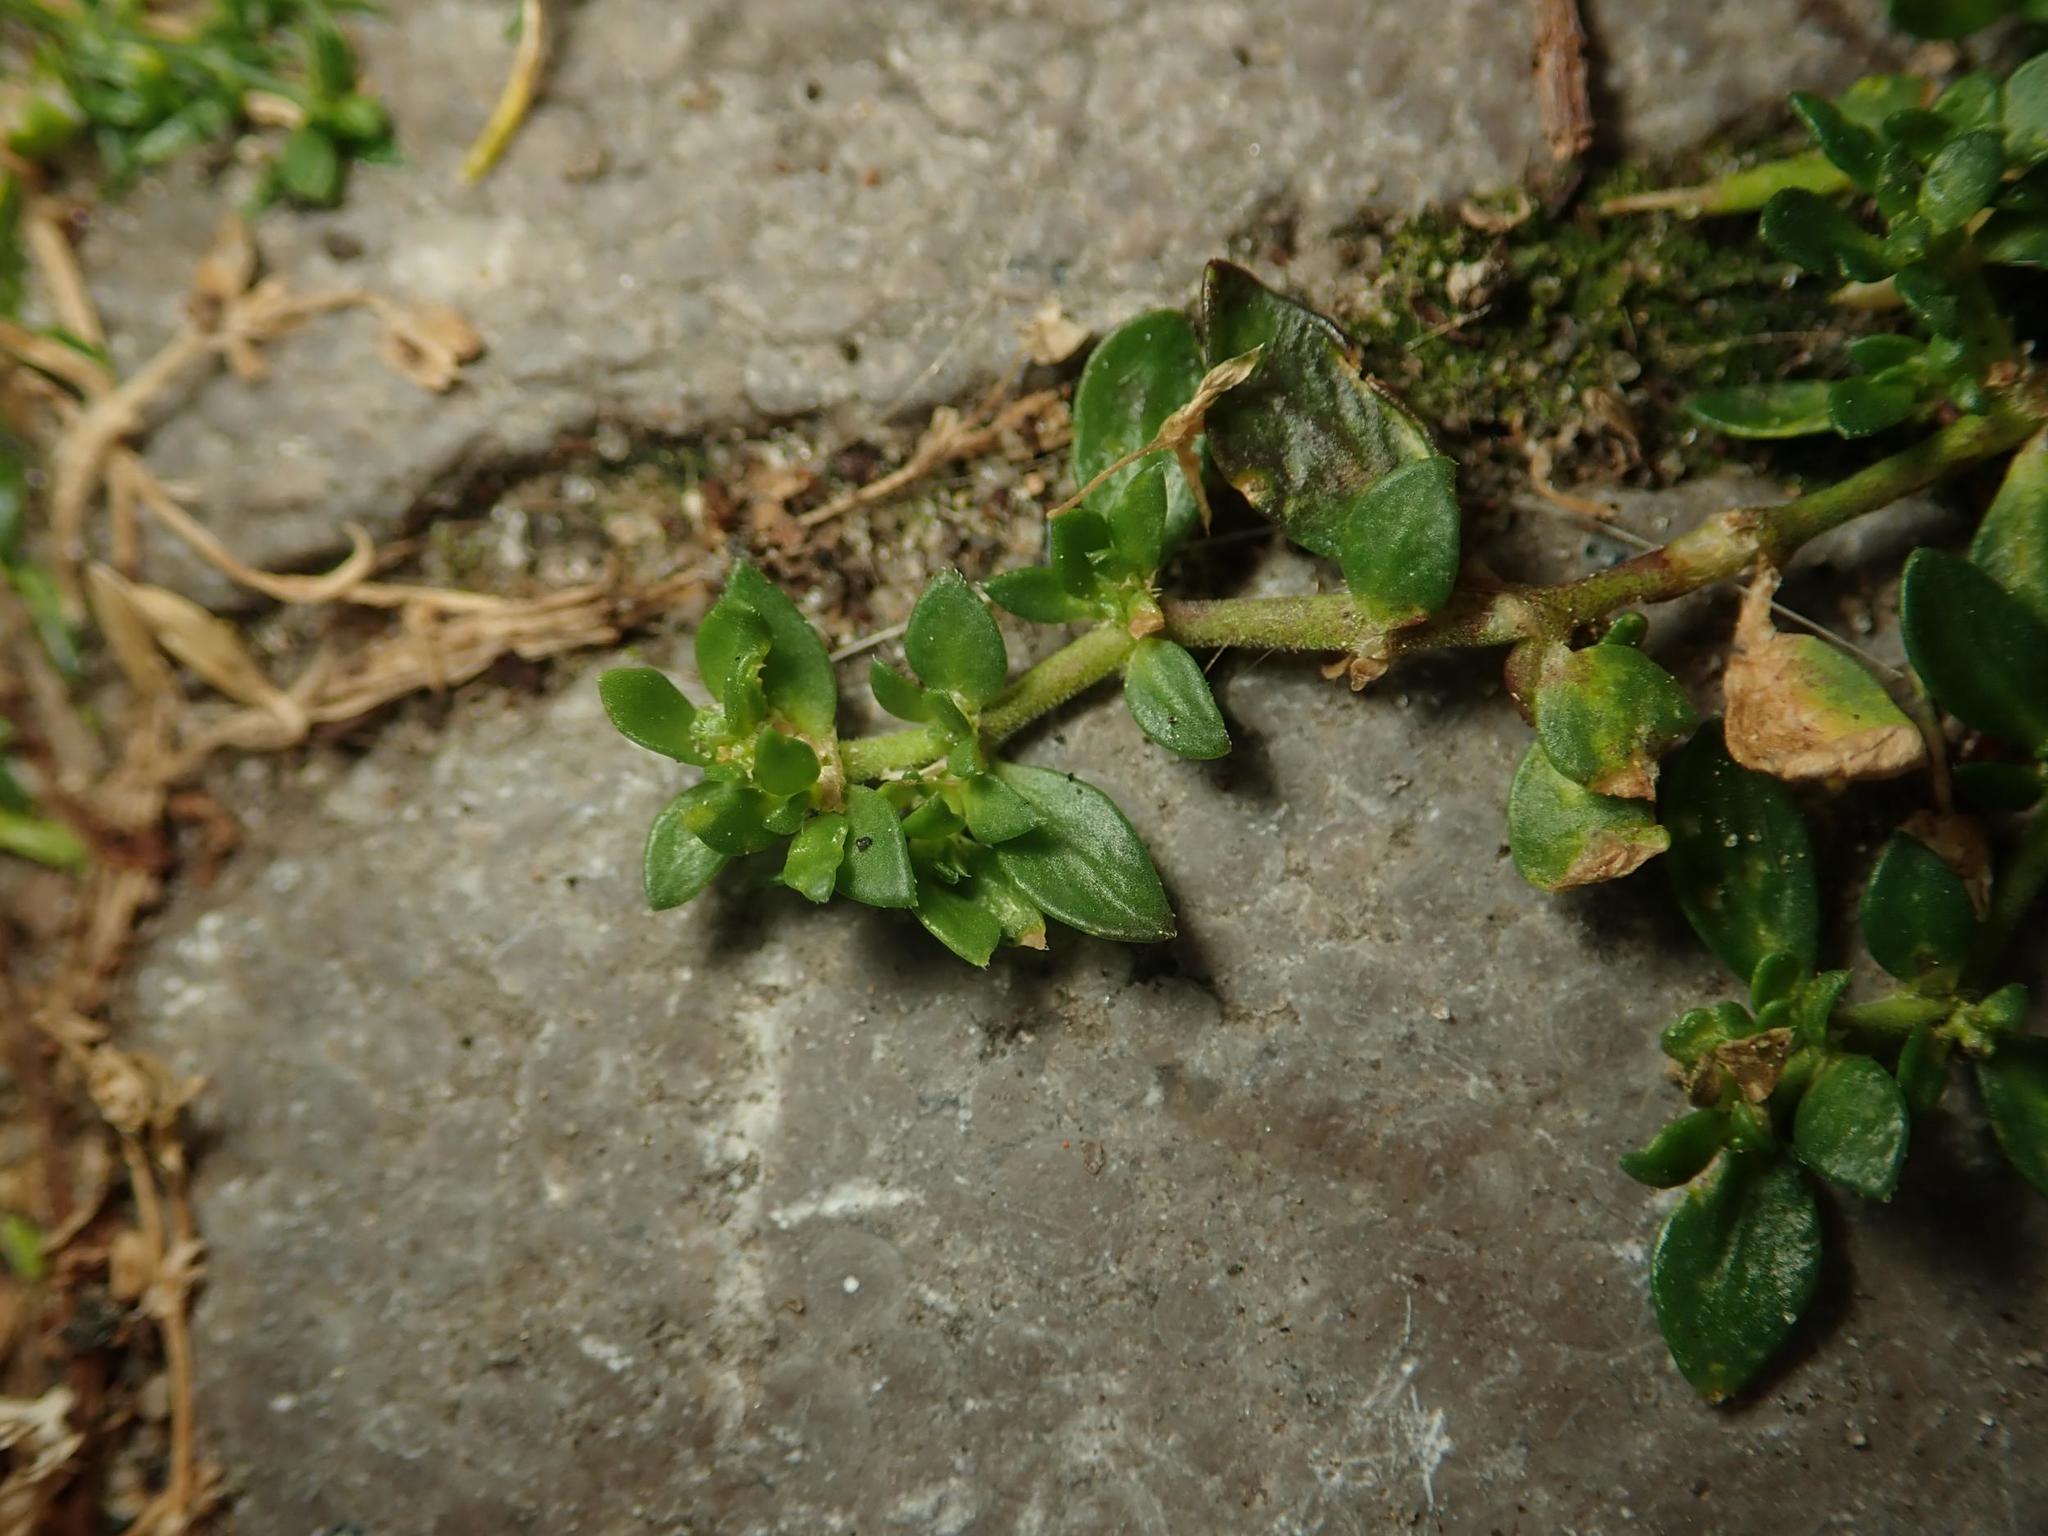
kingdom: Plantae
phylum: Tracheophyta
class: Magnoliopsida
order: Caryophyllales
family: Caryophyllaceae
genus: Herniaria
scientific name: Herniaria glabra
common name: Smooth rupturewort
